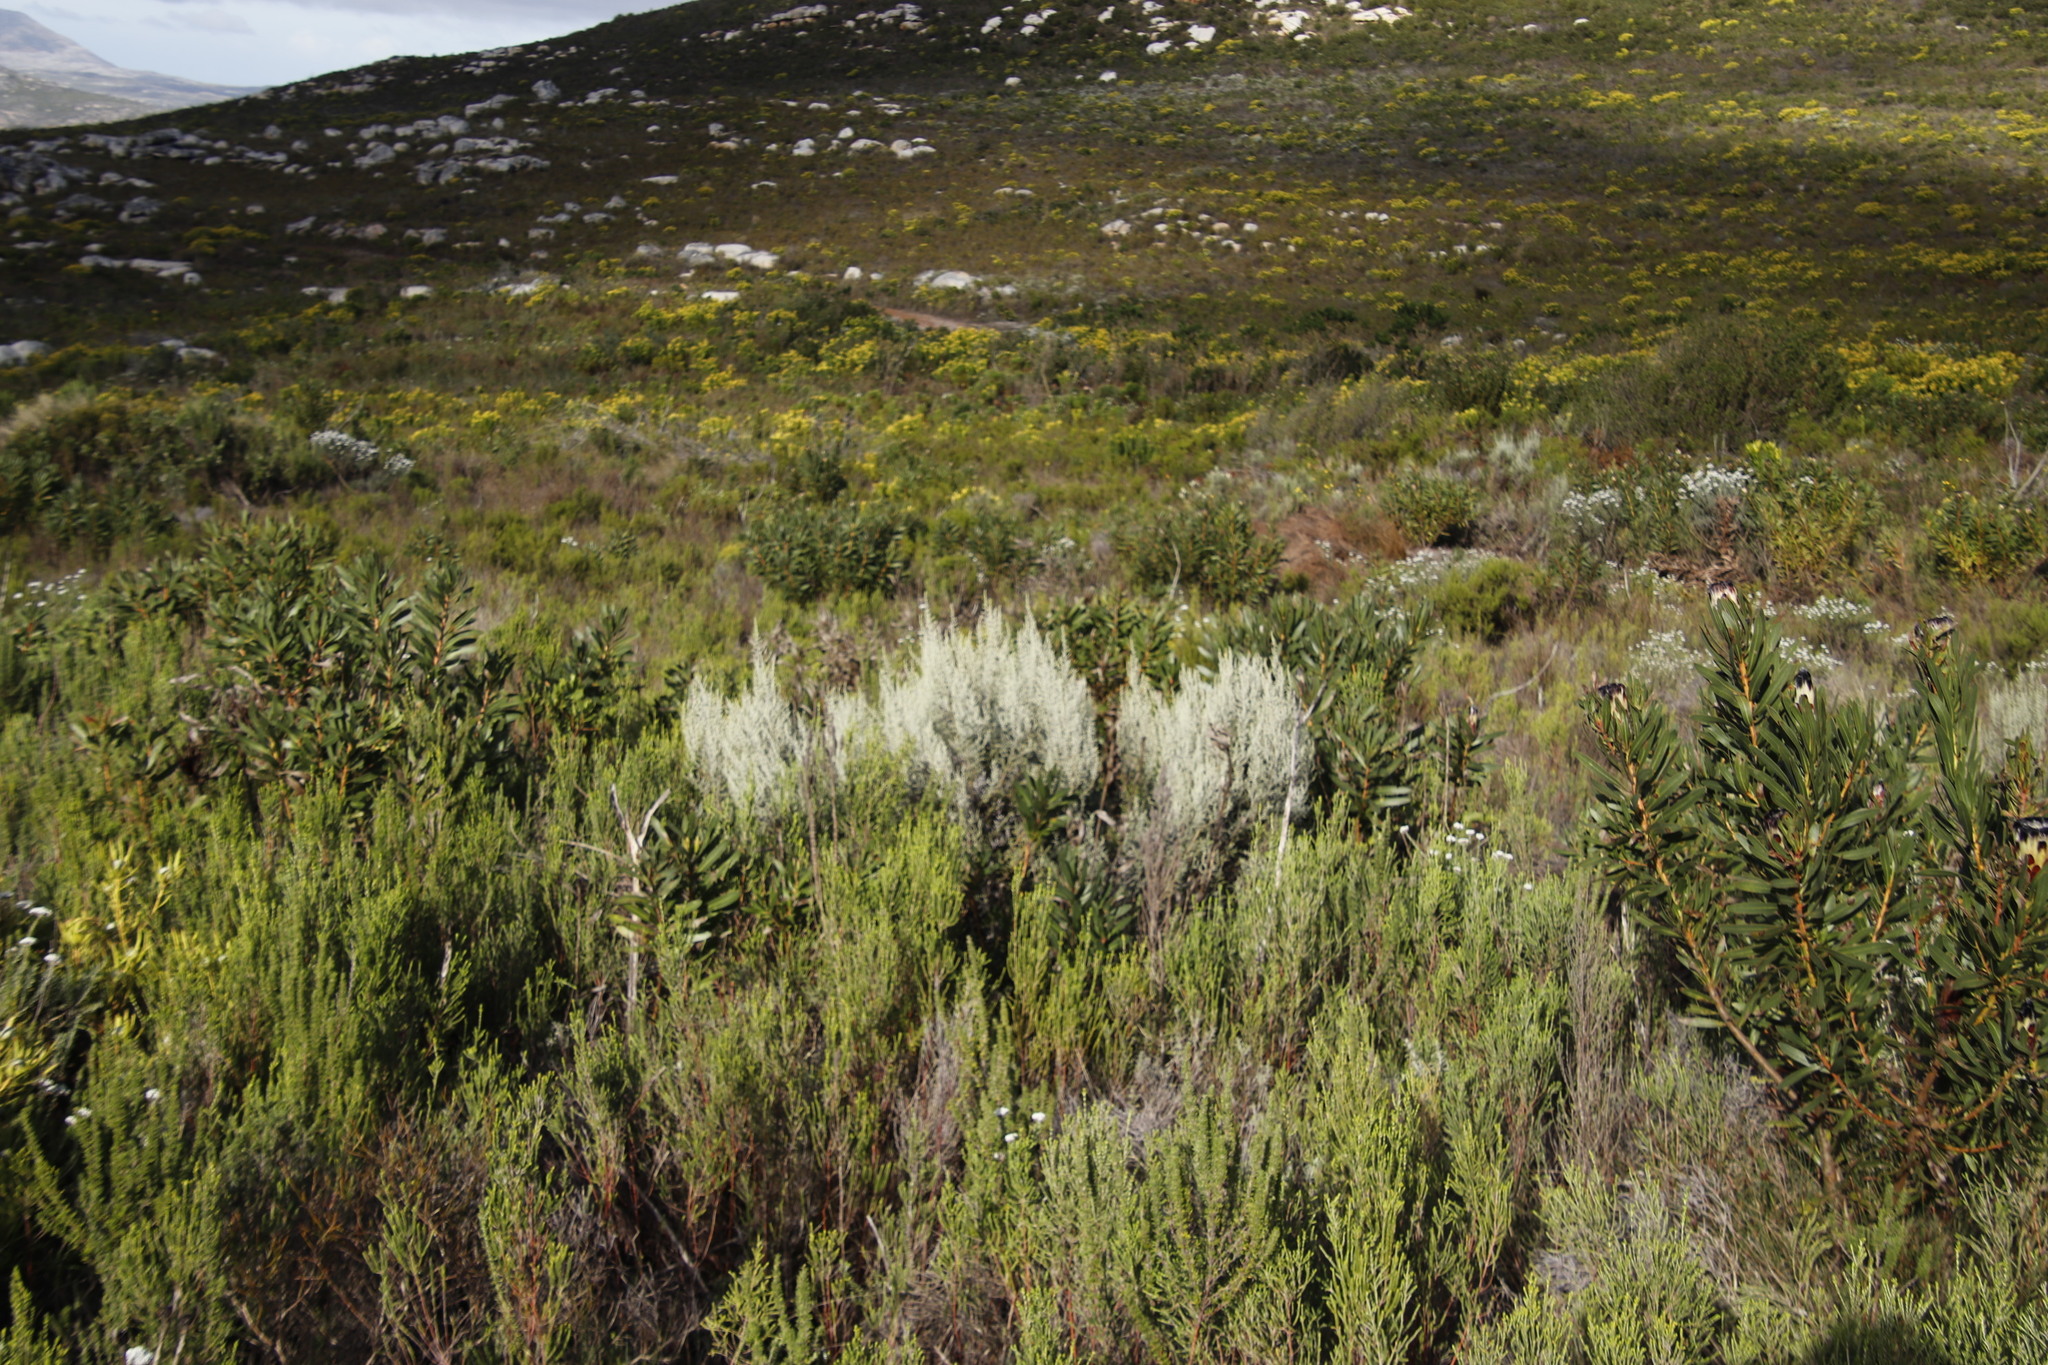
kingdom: Plantae
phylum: Tracheophyta
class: Magnoliopsida
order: Asterales
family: Asteraceae
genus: Seriphium
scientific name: Seriphium plumosum
